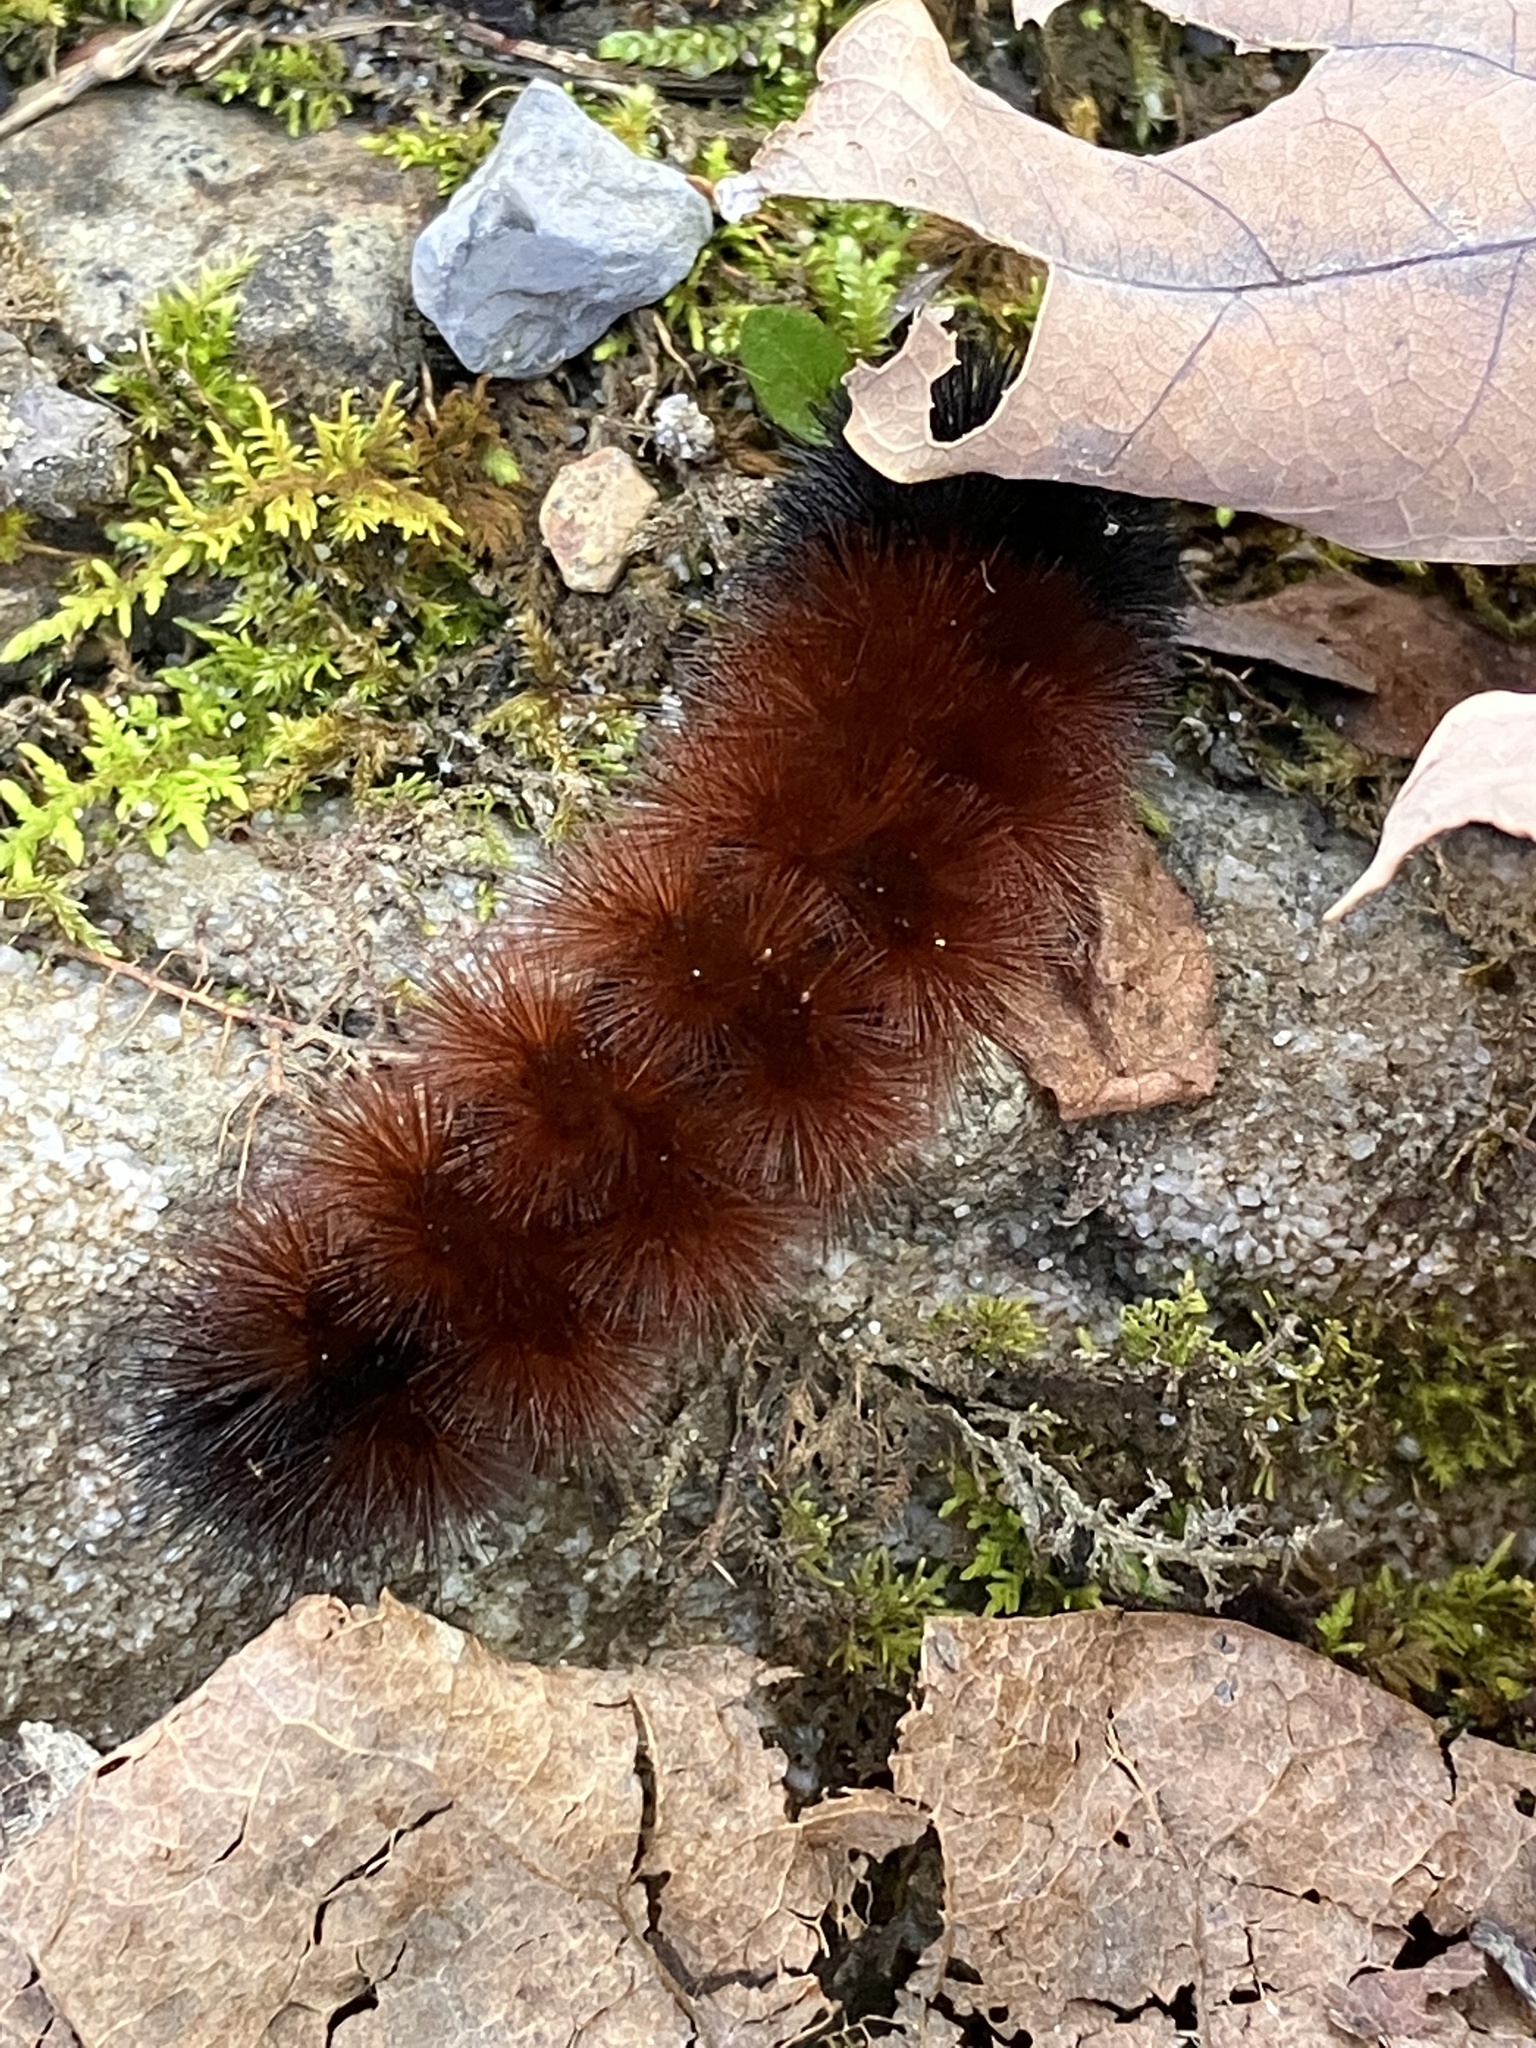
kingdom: Animalia
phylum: Arthropoda
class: Insecta
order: Lepidoptera
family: Erebidae
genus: Pyrrharctia
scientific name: Pyrrharctia isabella
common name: Isabella tiger moth
